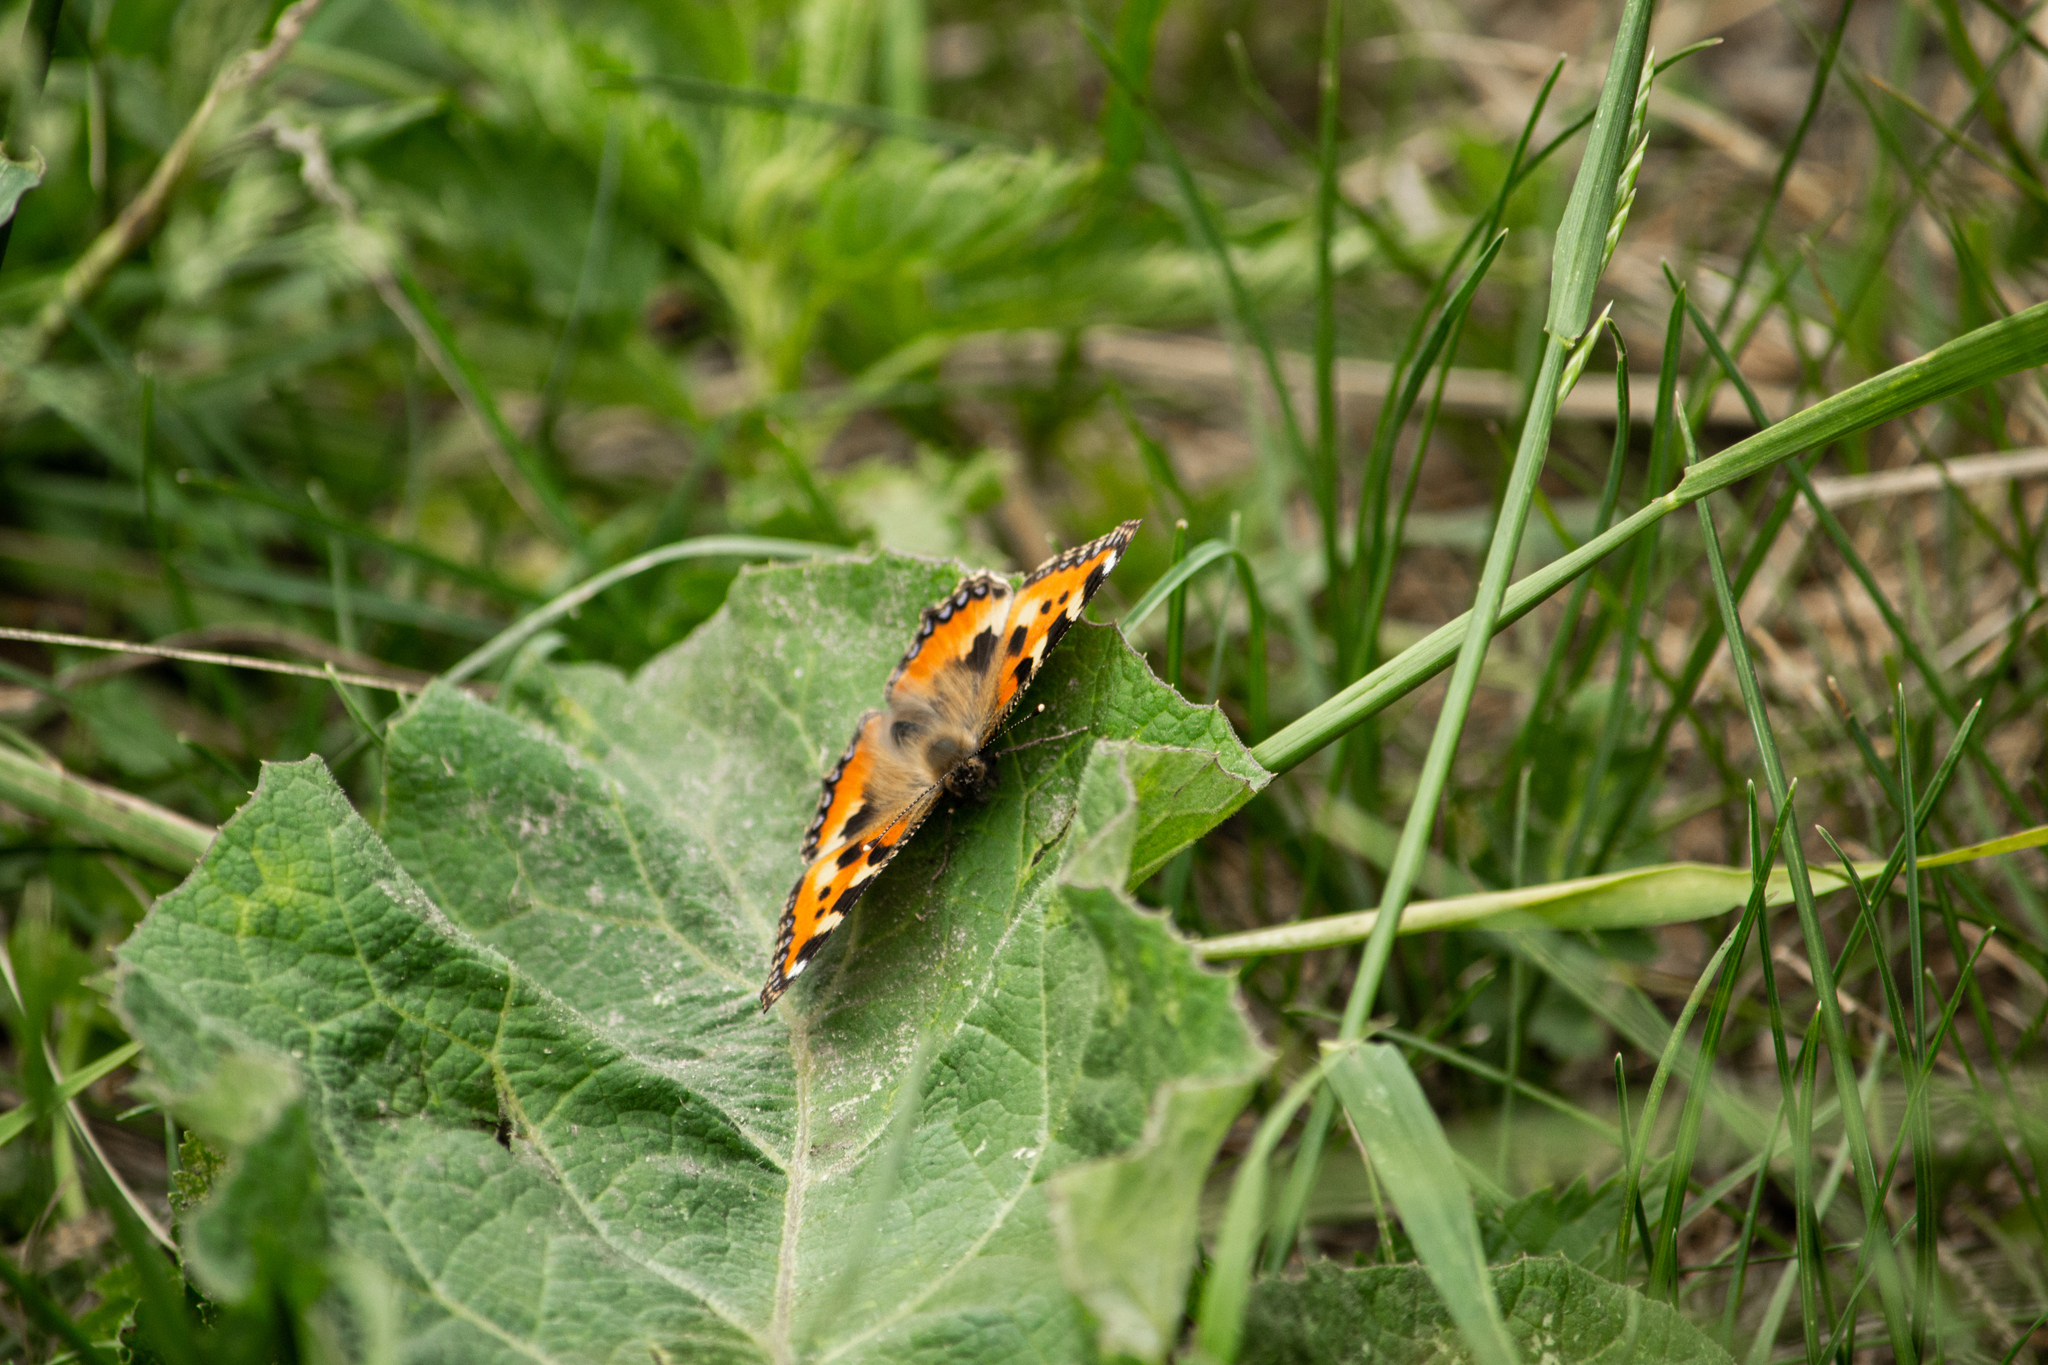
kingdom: Animalia
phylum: Arthropoda
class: Insecta
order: Lepidoptera
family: Nymphalidae
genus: Aglais
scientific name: Aglais urticae
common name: Small tortoiseshell
